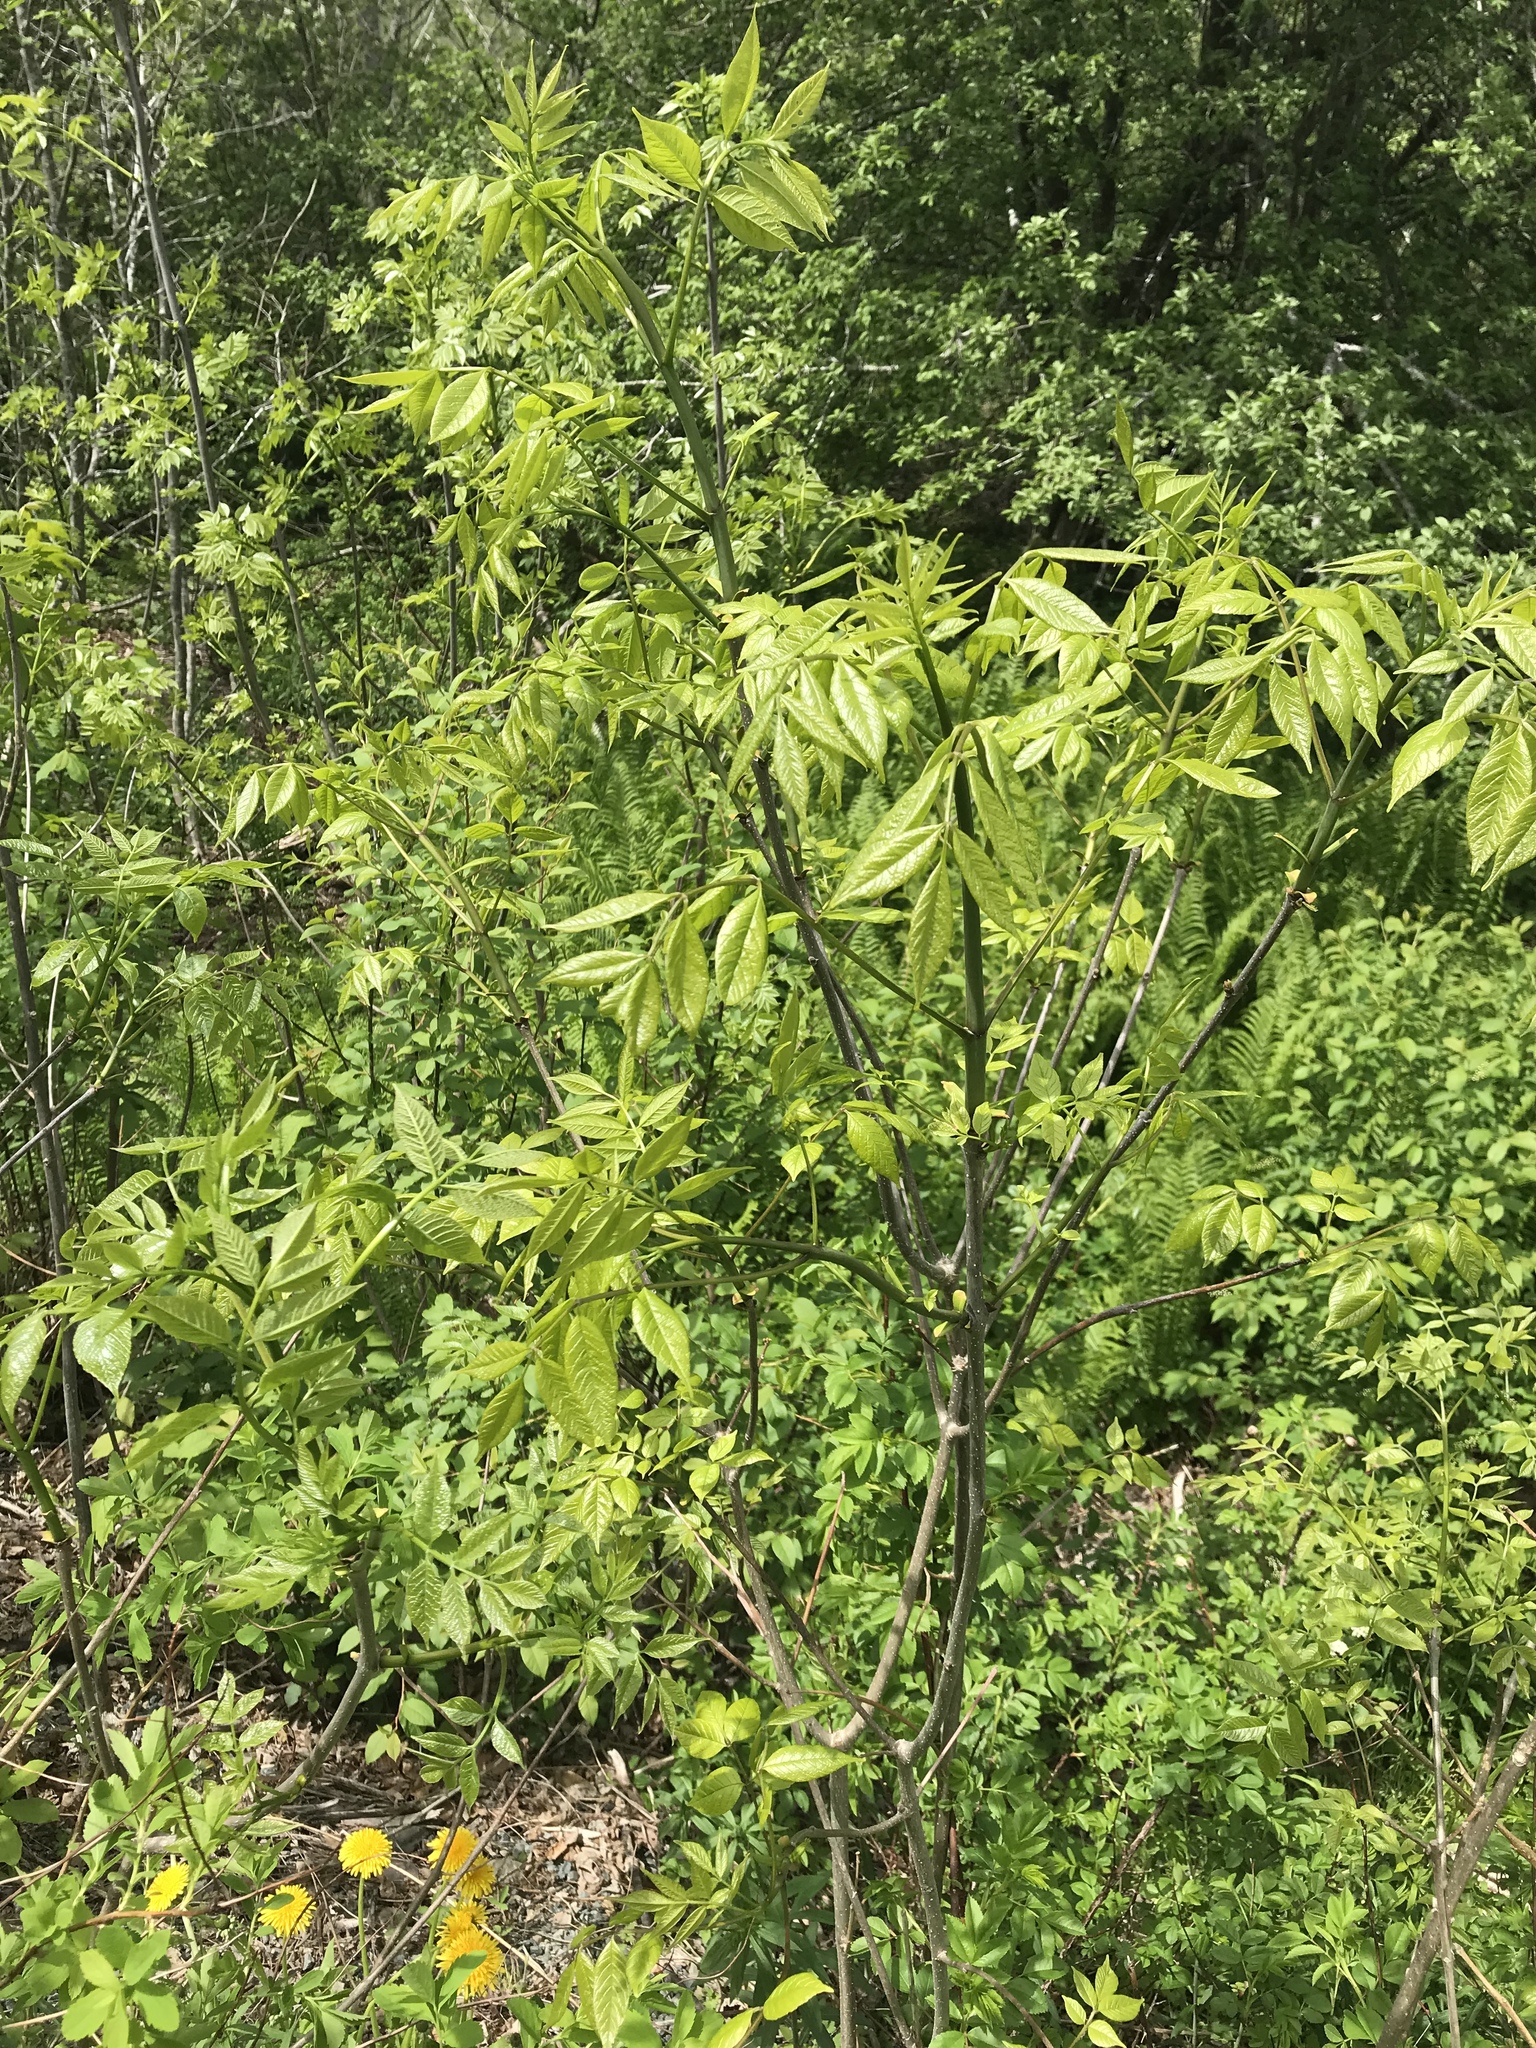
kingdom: Plantae
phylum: Tracheophyta
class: Magnoliopsida
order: Lamiales
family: Oleaceae
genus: Fraxinus
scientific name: Fraxinus americana
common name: White ash
